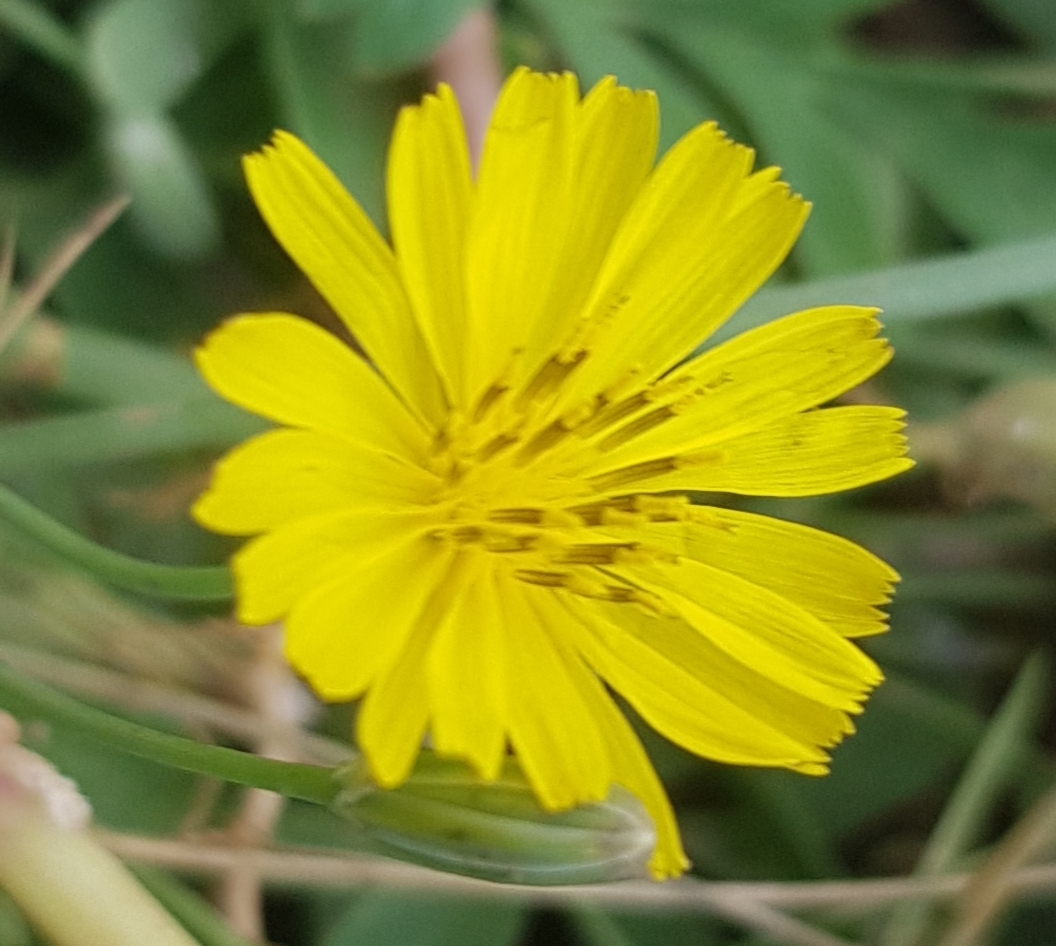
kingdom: Plantae
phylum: Tracheophyta
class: Magnoliopsida
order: Asterales
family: Asteraceae
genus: Ixeris
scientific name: Ixeris chinensis
